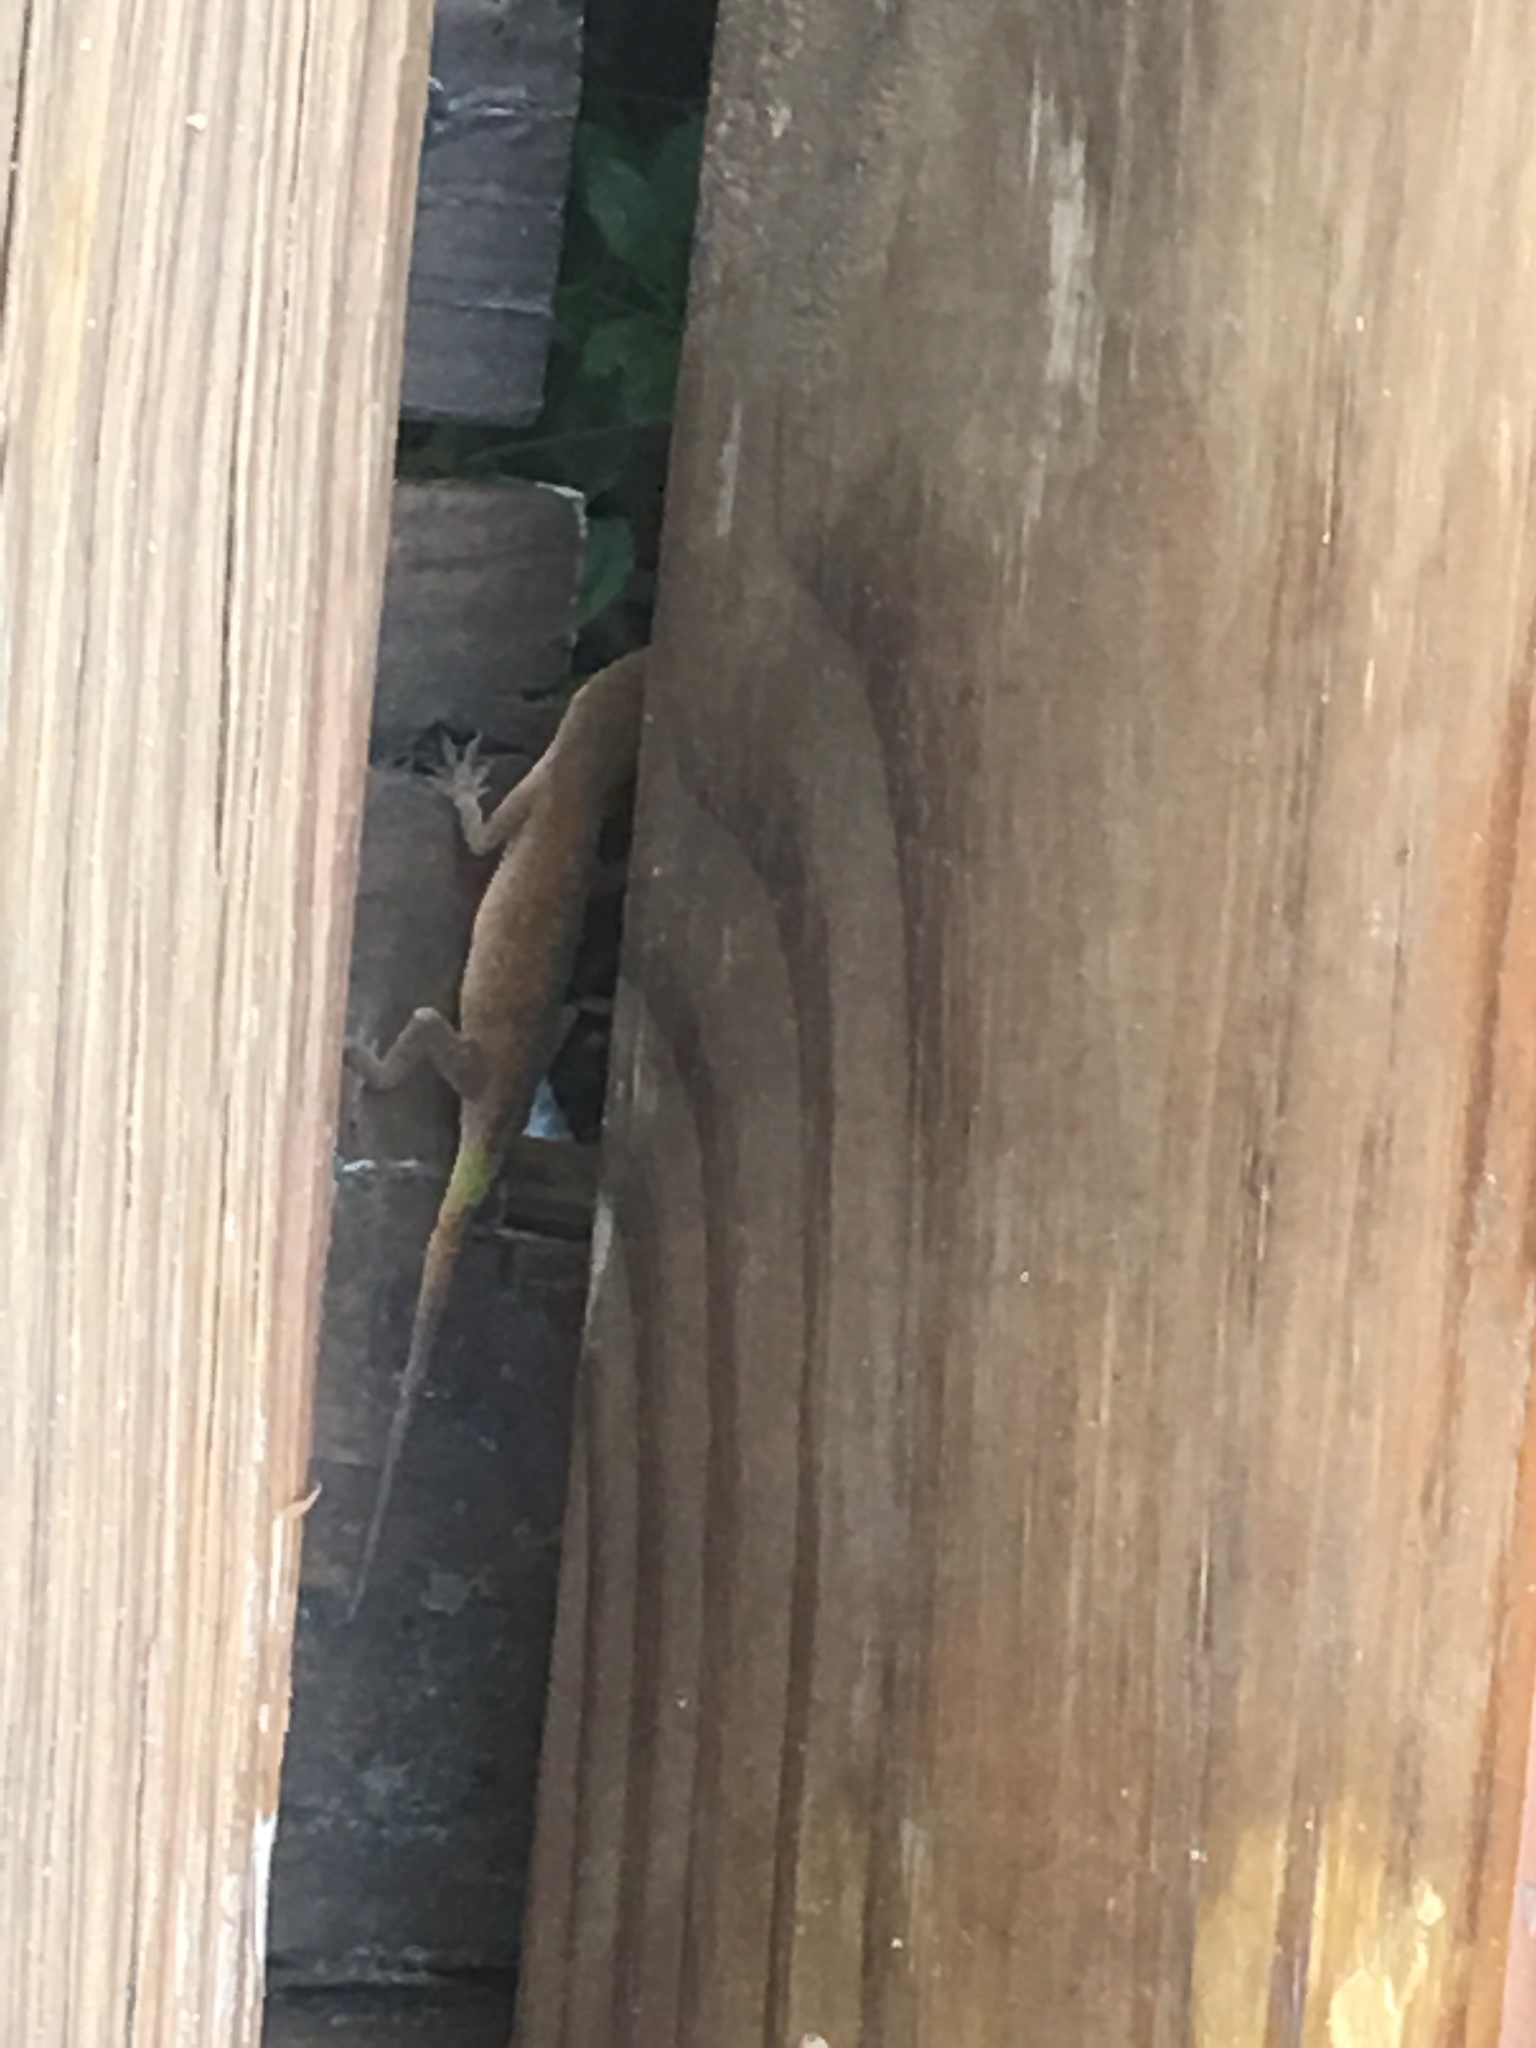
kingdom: Animalia
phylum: Chordata
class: Squamata
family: Dactyloidae
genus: Anolis
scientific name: Anolis carolinensis
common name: Green anole
